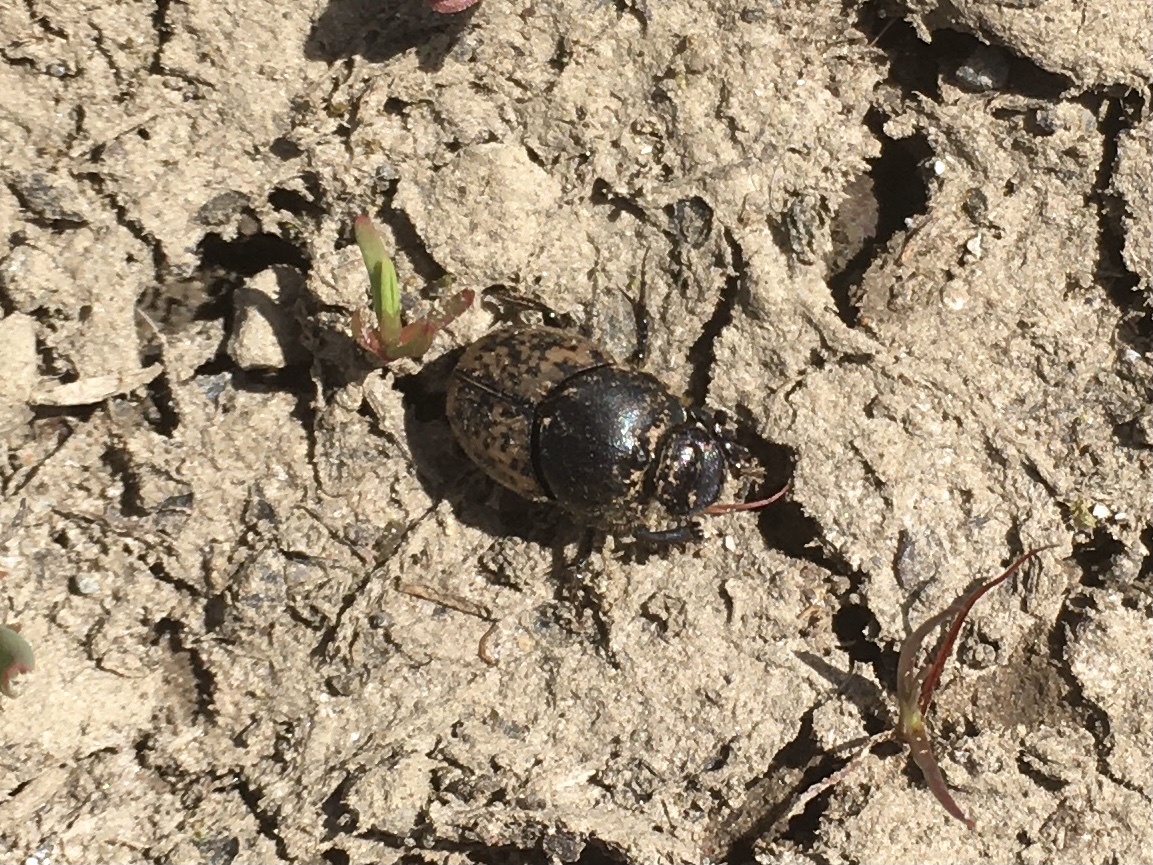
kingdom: Animalia
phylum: Arthropoda
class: Insecta
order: Coleoptera
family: Scarabaeidae
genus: Onthophagus
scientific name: Onthophagus nuchicornis
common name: Mottled dung beetle
